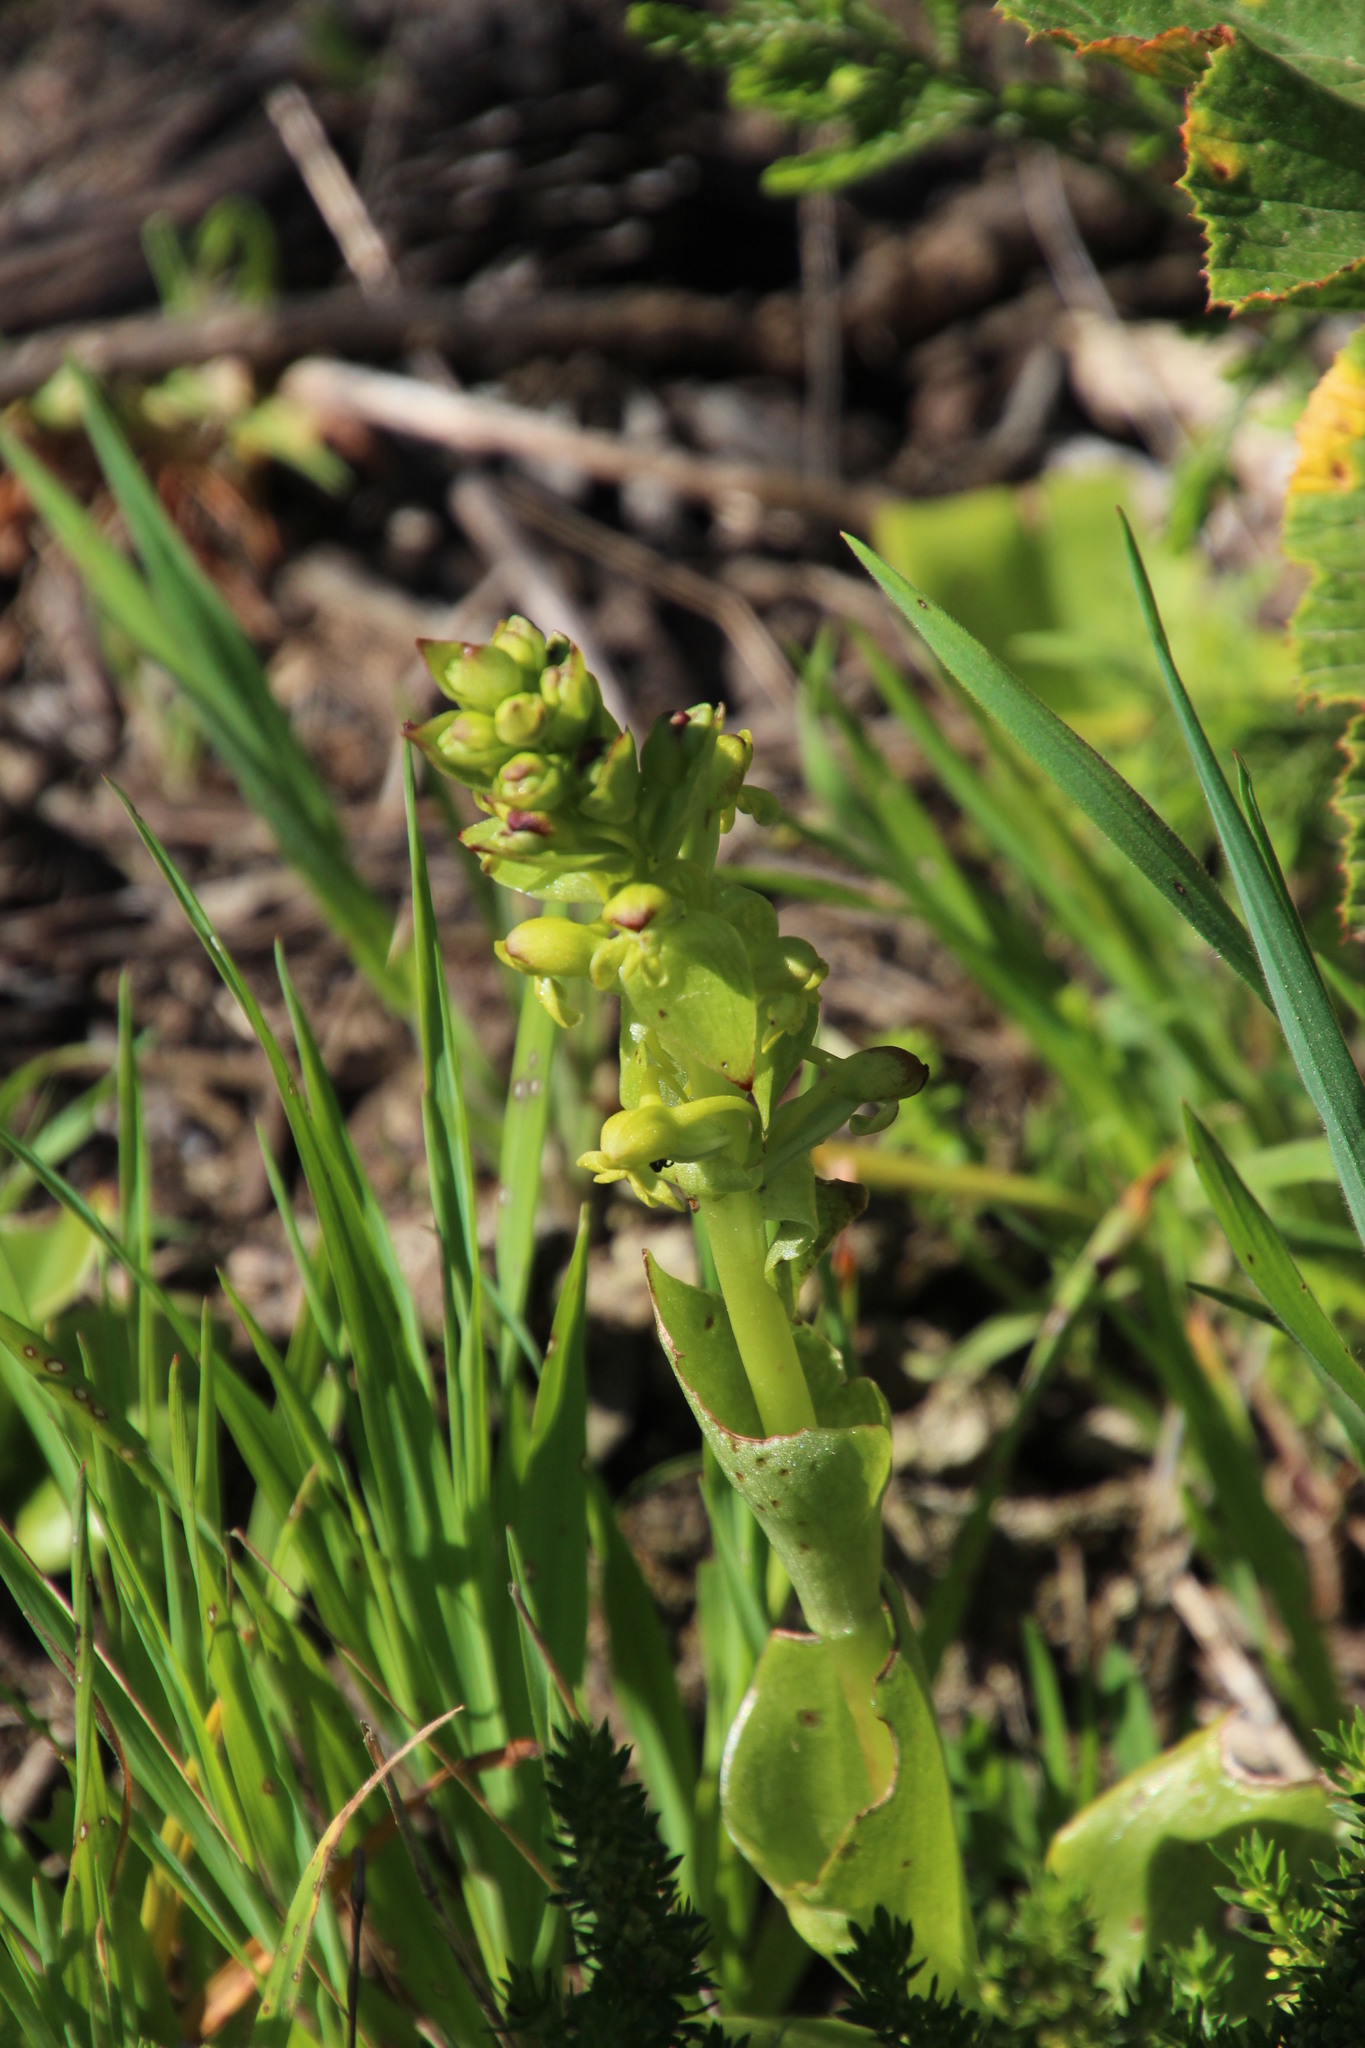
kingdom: Plantae
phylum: Tracheophyta
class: Liliopsida
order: Asparagales
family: Orchidaceae
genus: Satyrium
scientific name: Satyrium odorum
